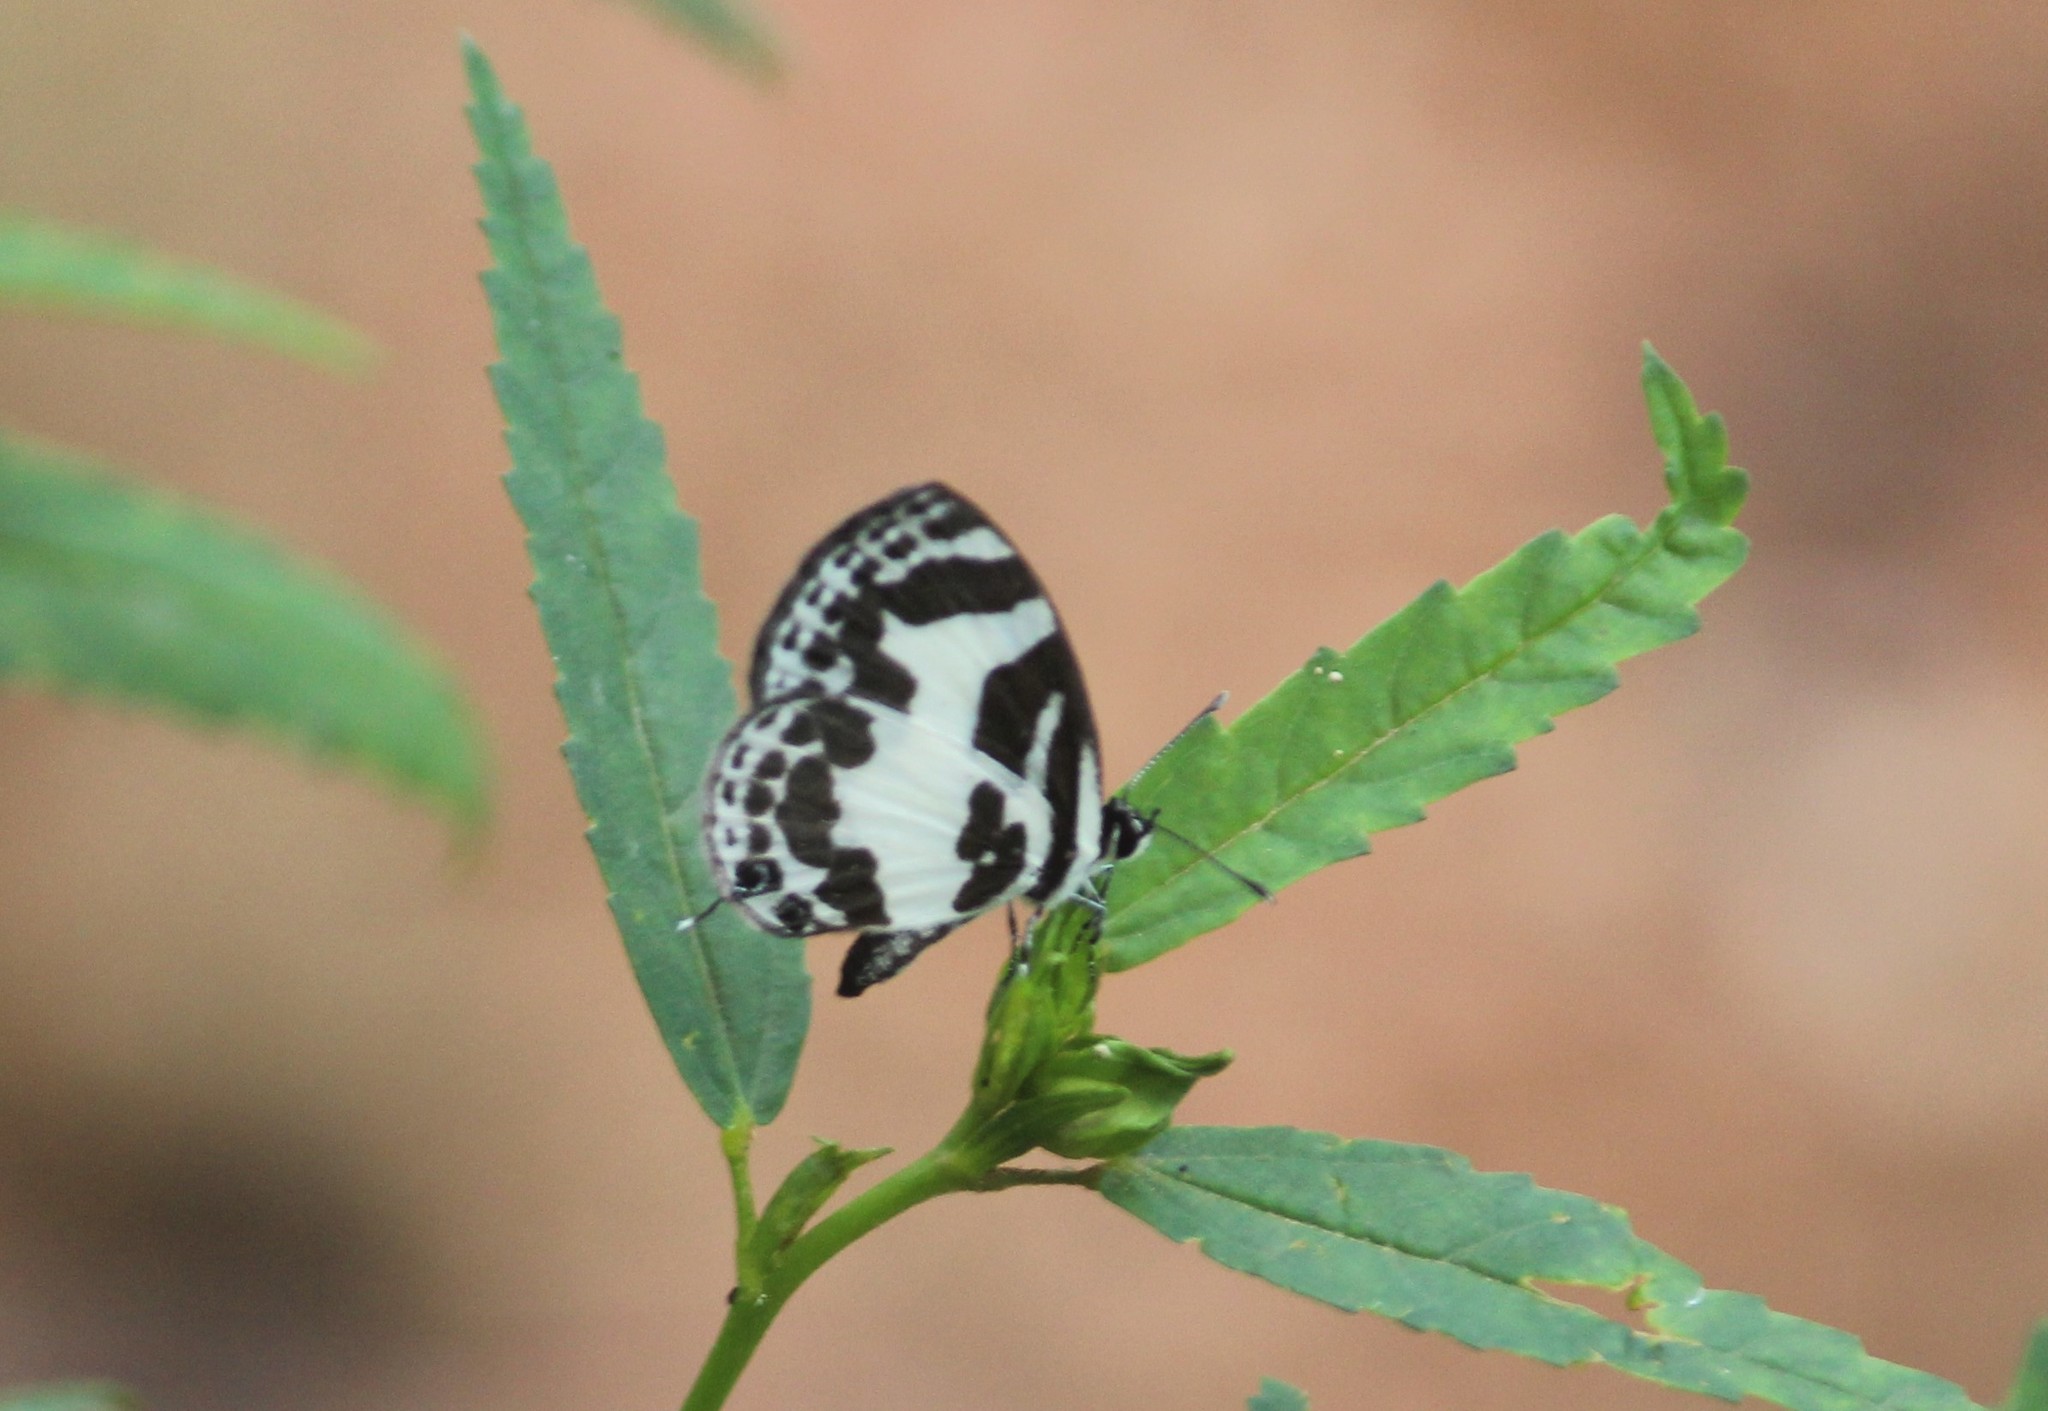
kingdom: Animalia
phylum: Arthropoda
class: Insecta
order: Lepidoptera
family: Lycaenidae
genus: Discolampa
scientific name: Discolampa ethion
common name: Banded blue pierrot
